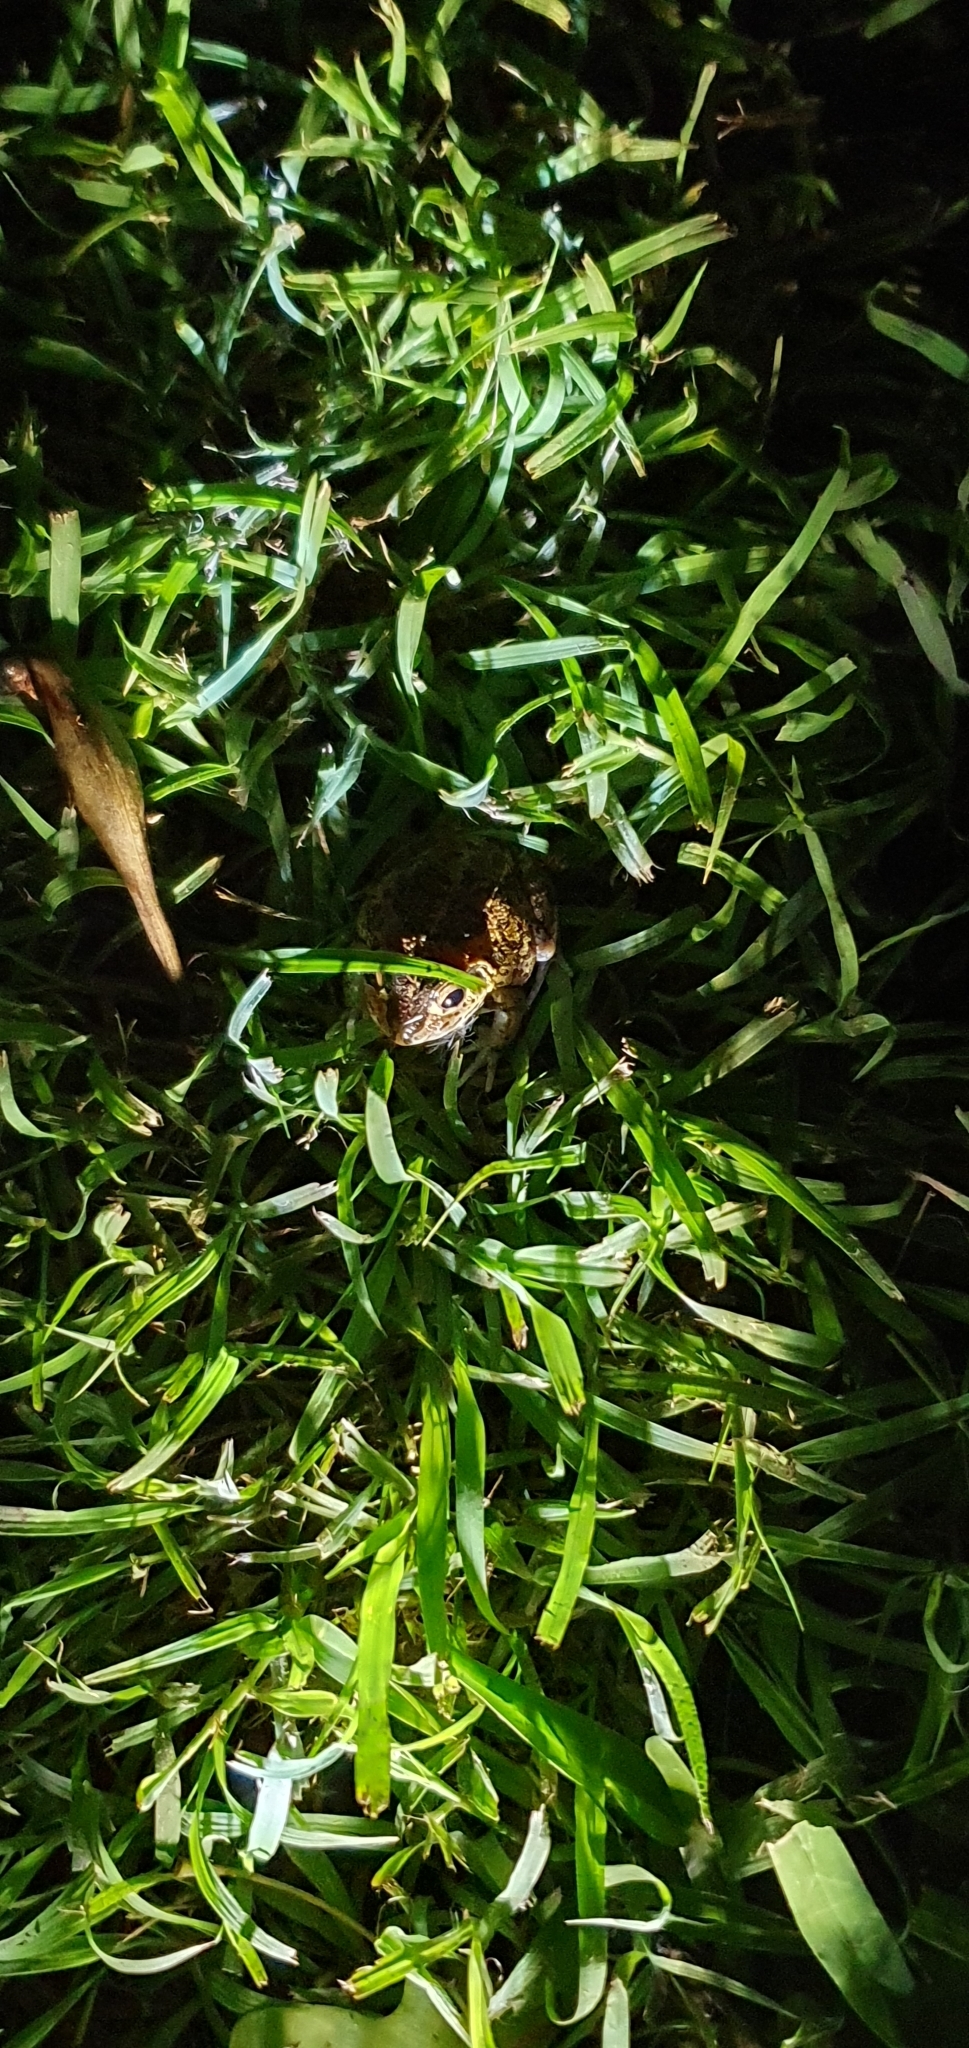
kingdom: Animalia
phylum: Chordata
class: Amphibia
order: Anura
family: Pelodryadidae
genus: Ranoidea
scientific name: Ranoidea brevipes
